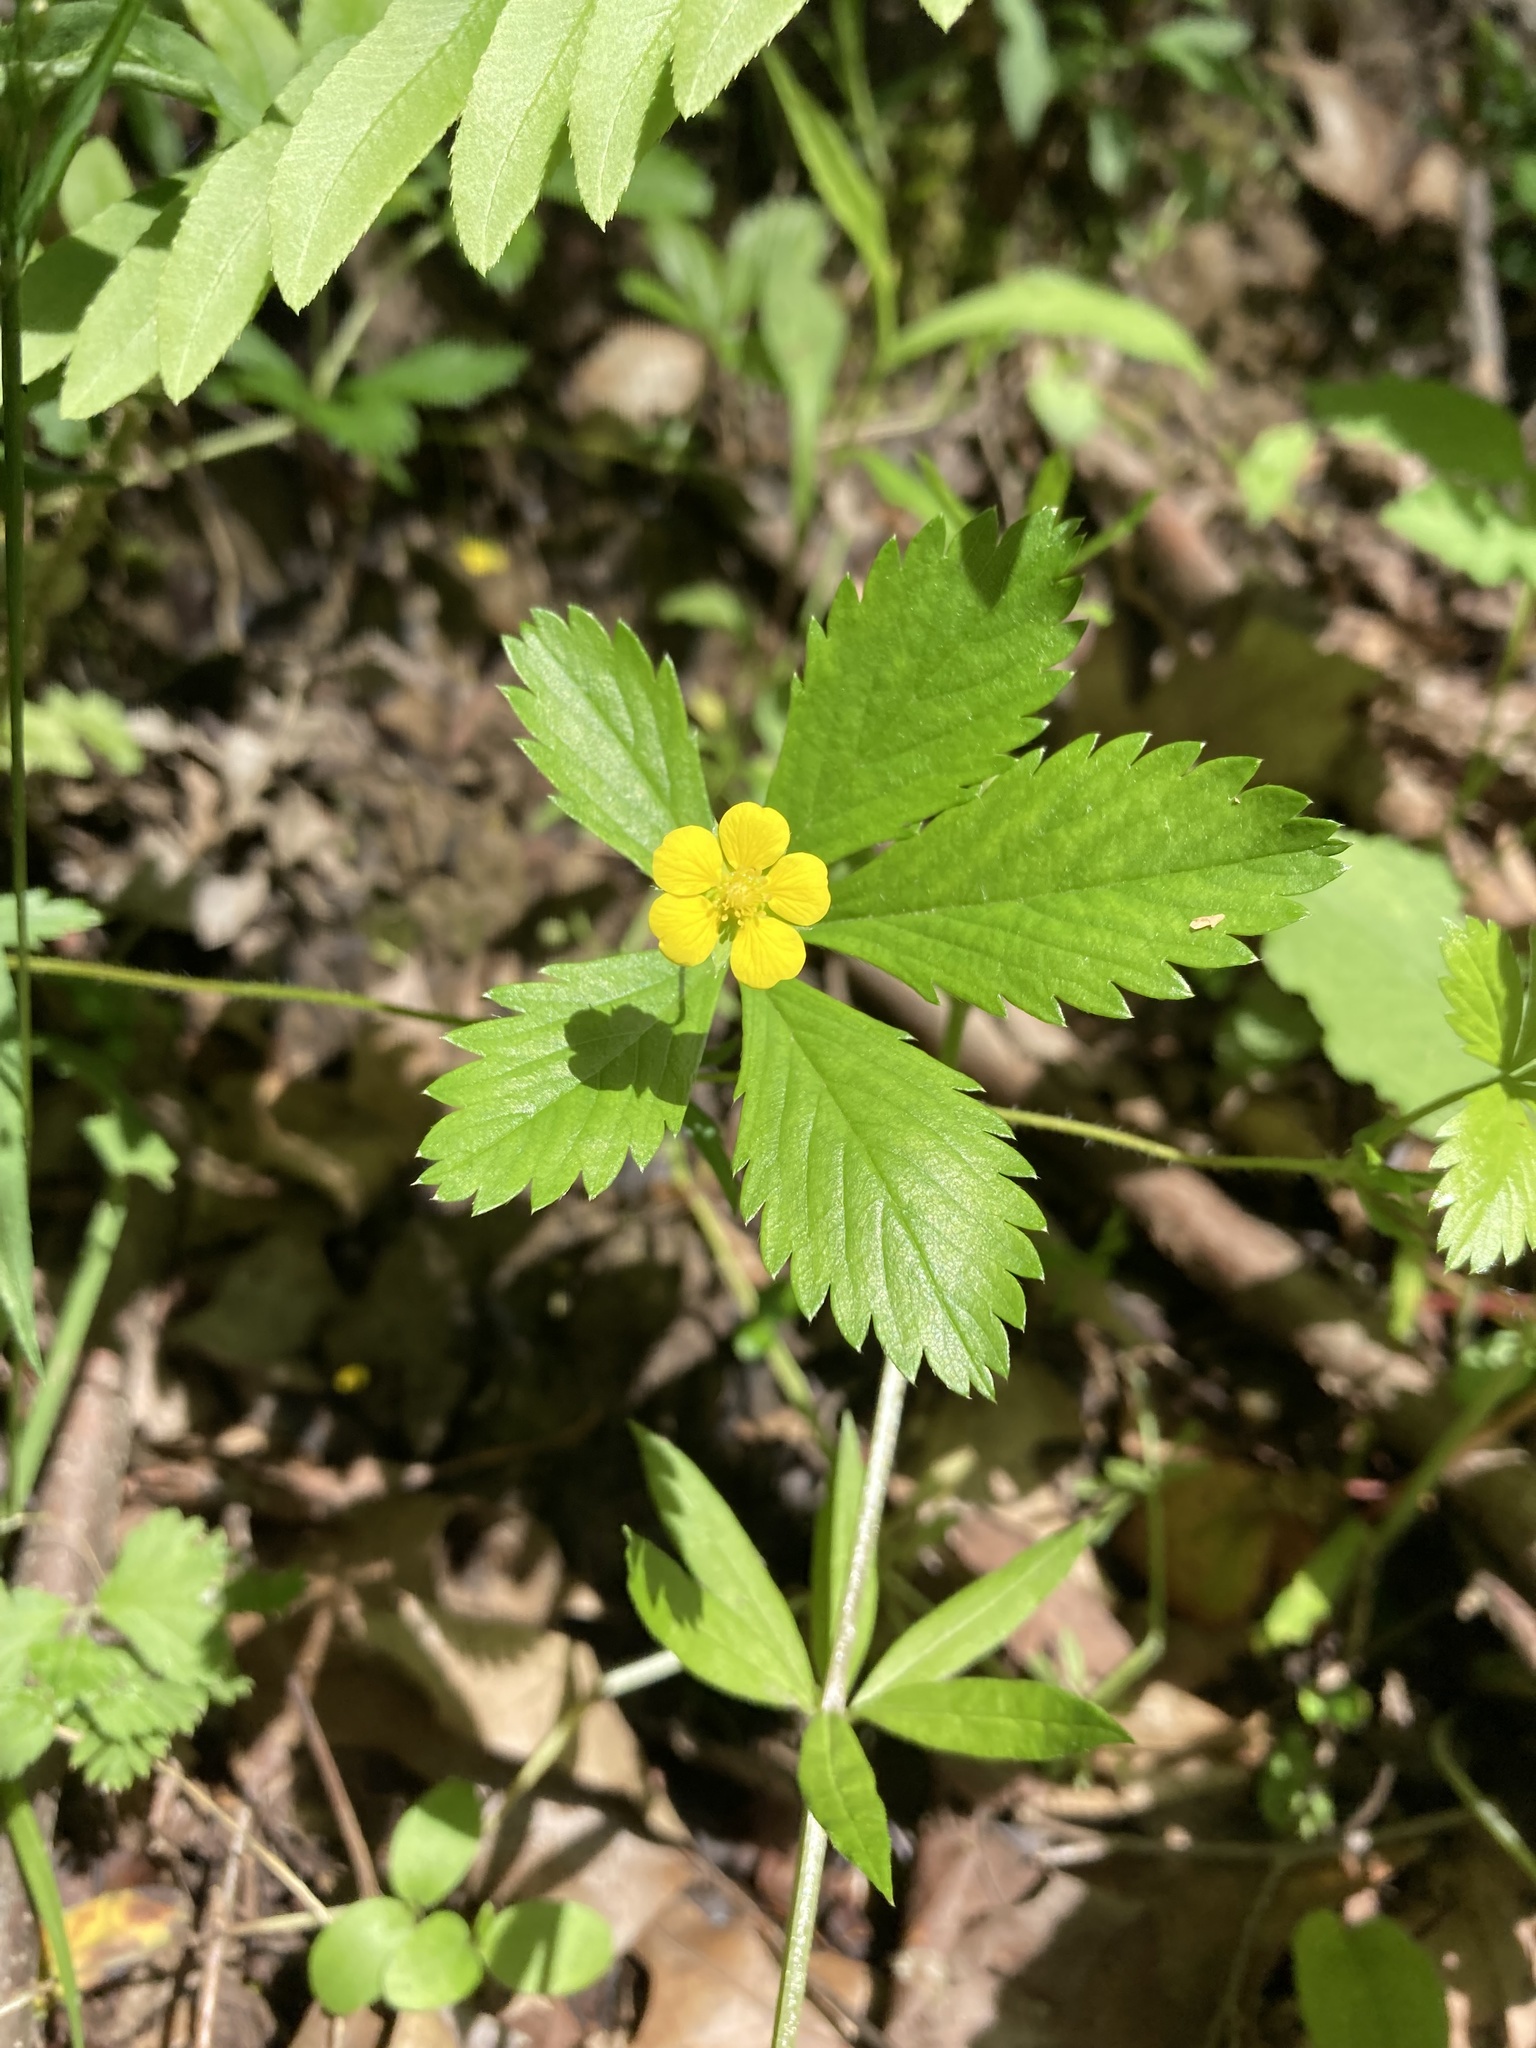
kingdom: Plantae
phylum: Tracheophyta
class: Magnoliopsida
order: Rosales
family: Rosaceae
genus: Potentilla
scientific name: Potentilla simplex
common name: Old field cinquefoil
